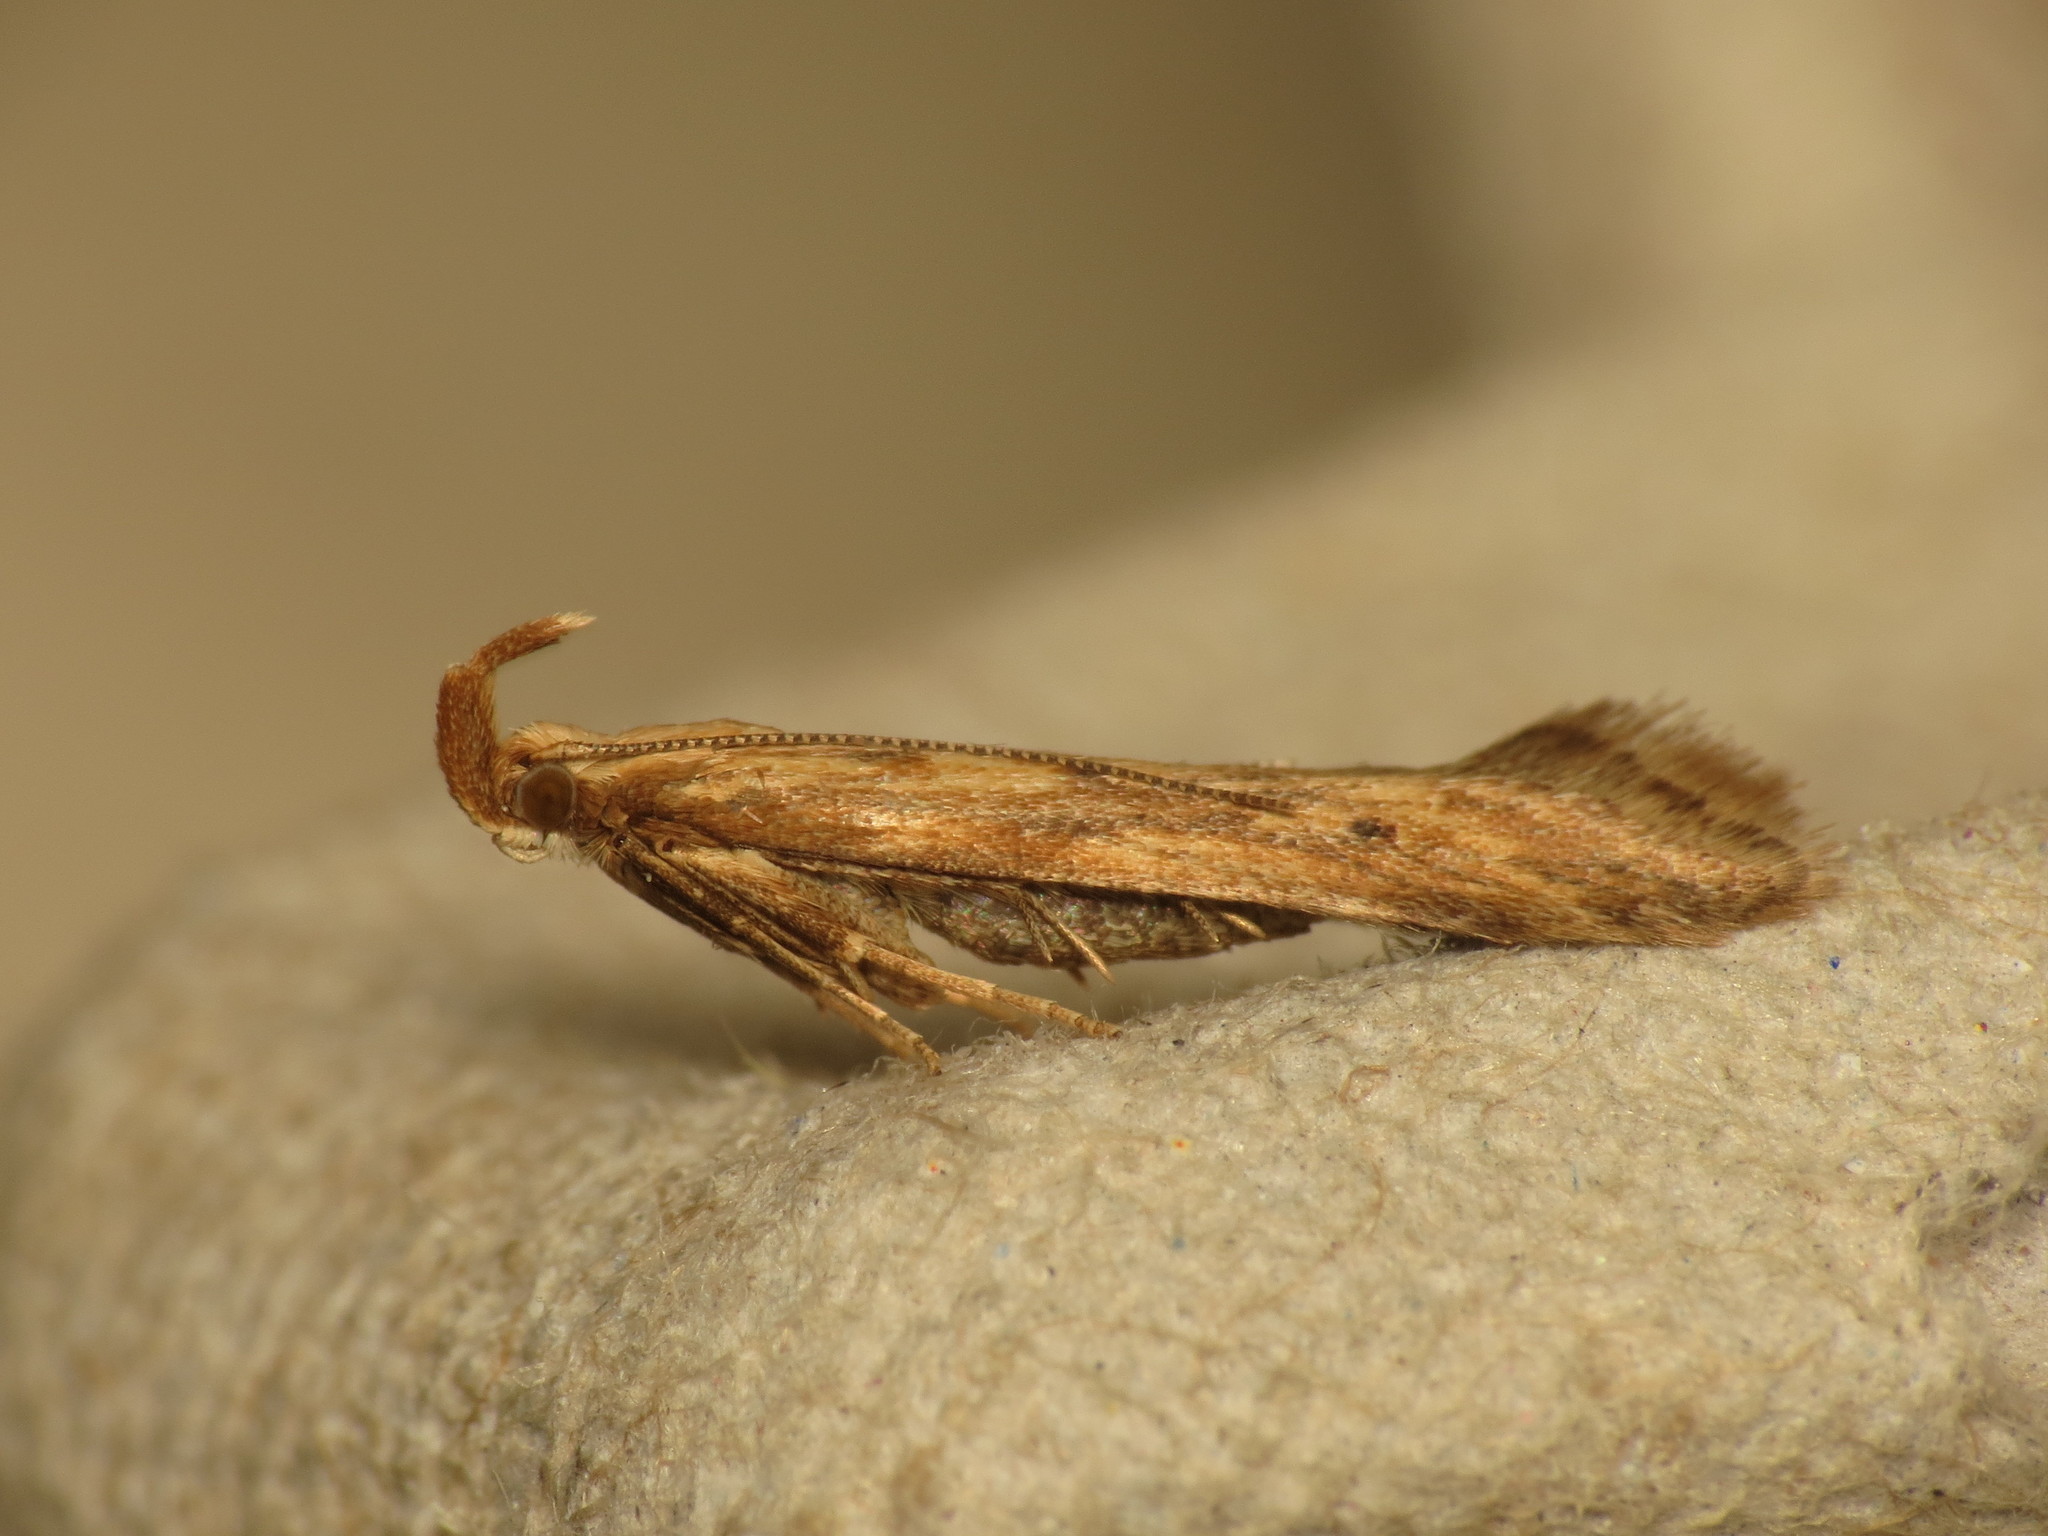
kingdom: Animalia
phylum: Arthropoda
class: Insecta
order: Lepidoptera
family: Gelechiidae
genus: Metzneria
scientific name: Metzneria lappella
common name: Burdock neb
